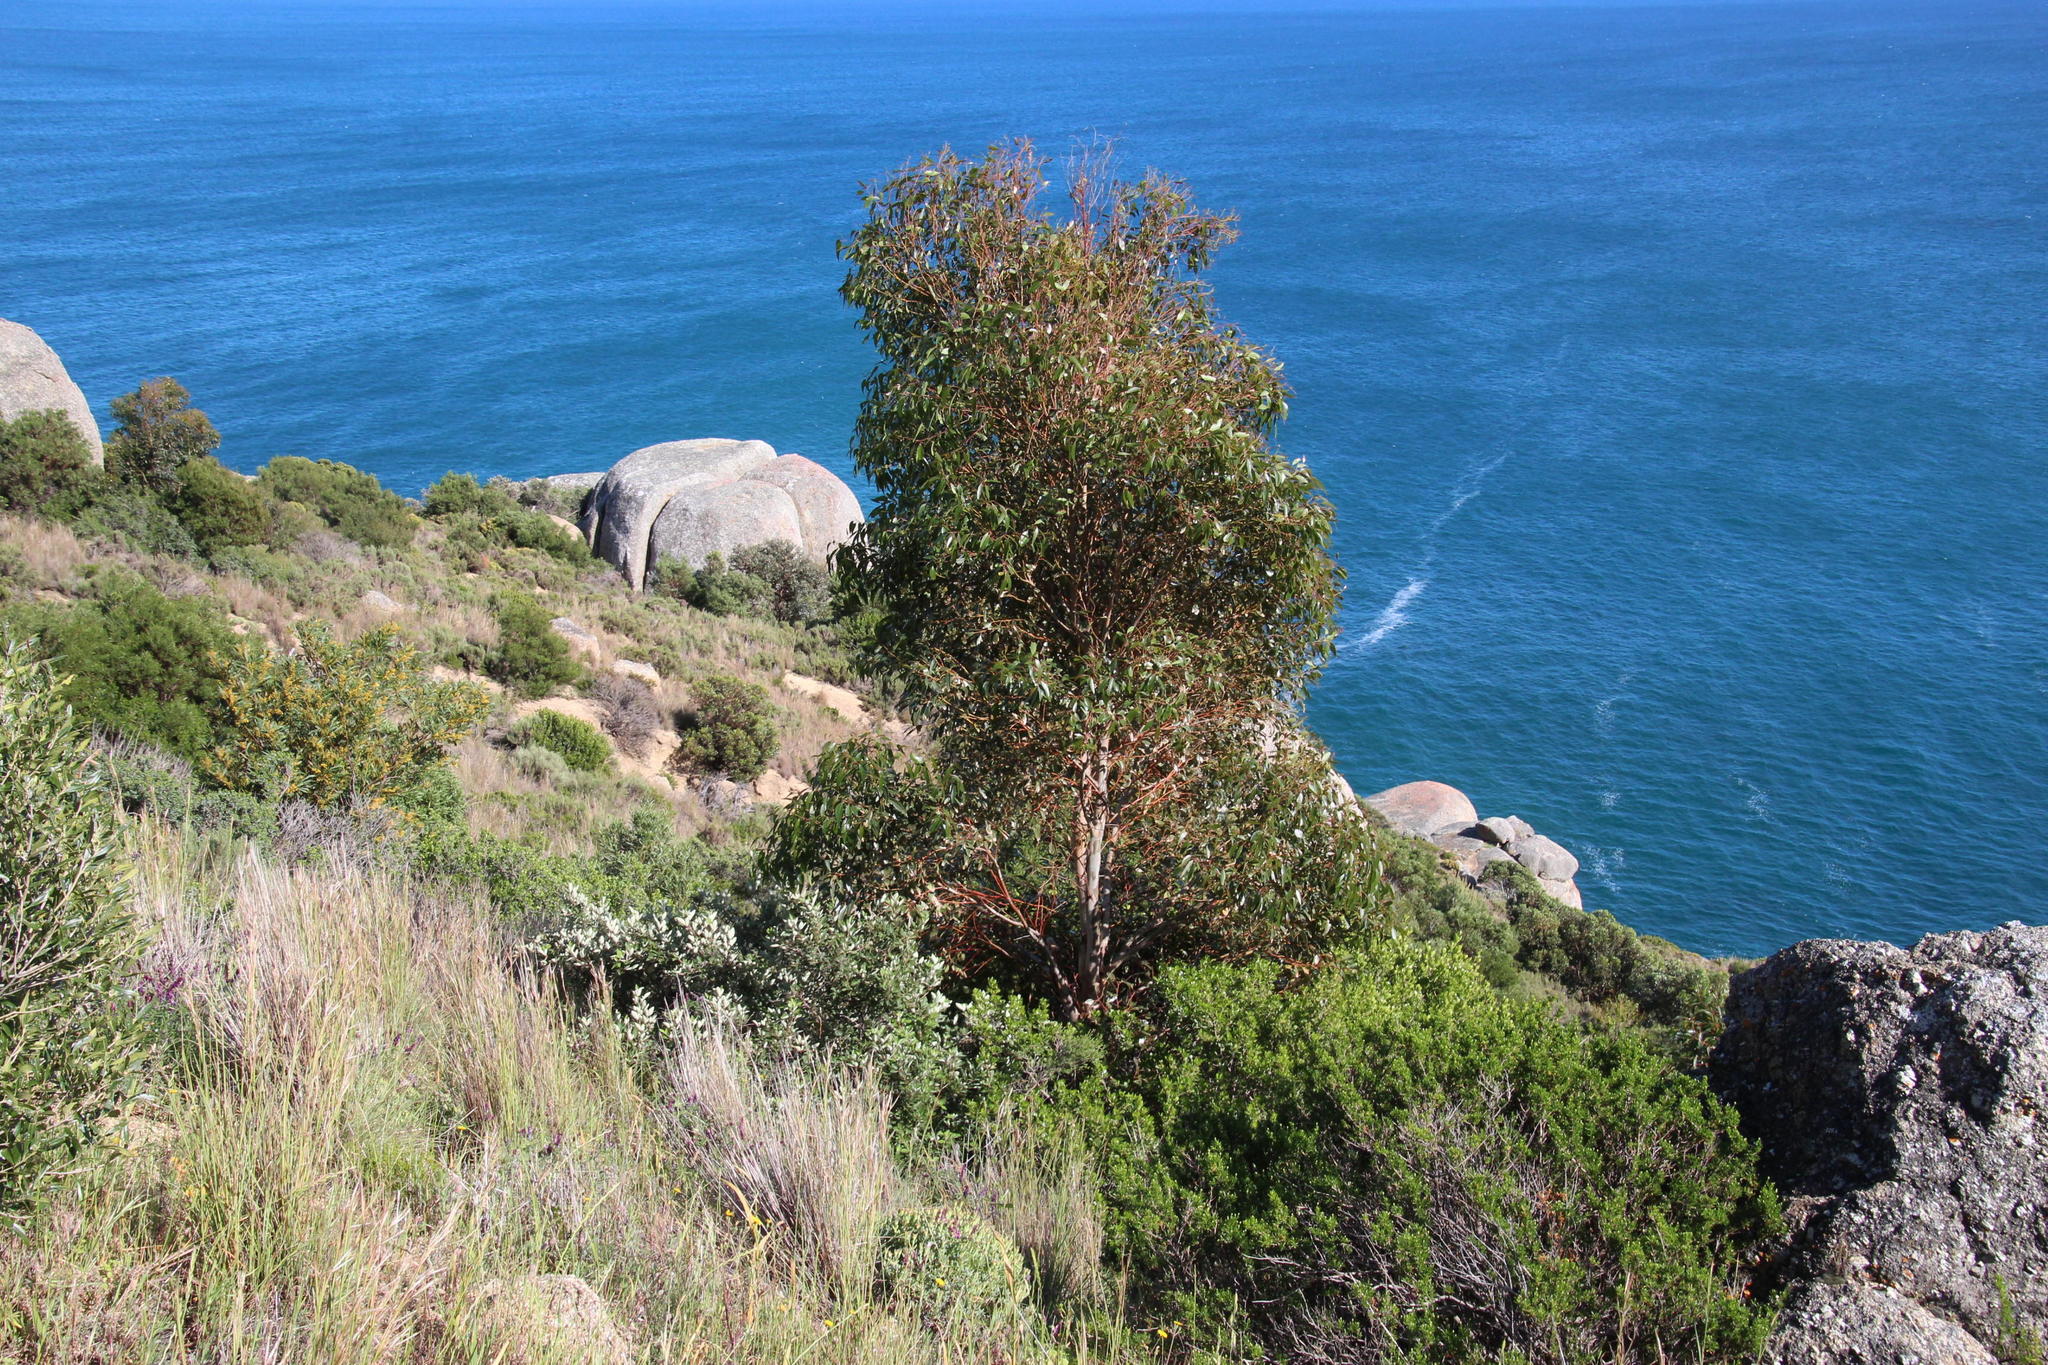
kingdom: Plantae
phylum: Tracheophyta
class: Magnoliopsida
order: Myrtales
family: Myrtaceae
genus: Eucalyptus
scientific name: Eucalyptus cladocalyx
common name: Sugargum
